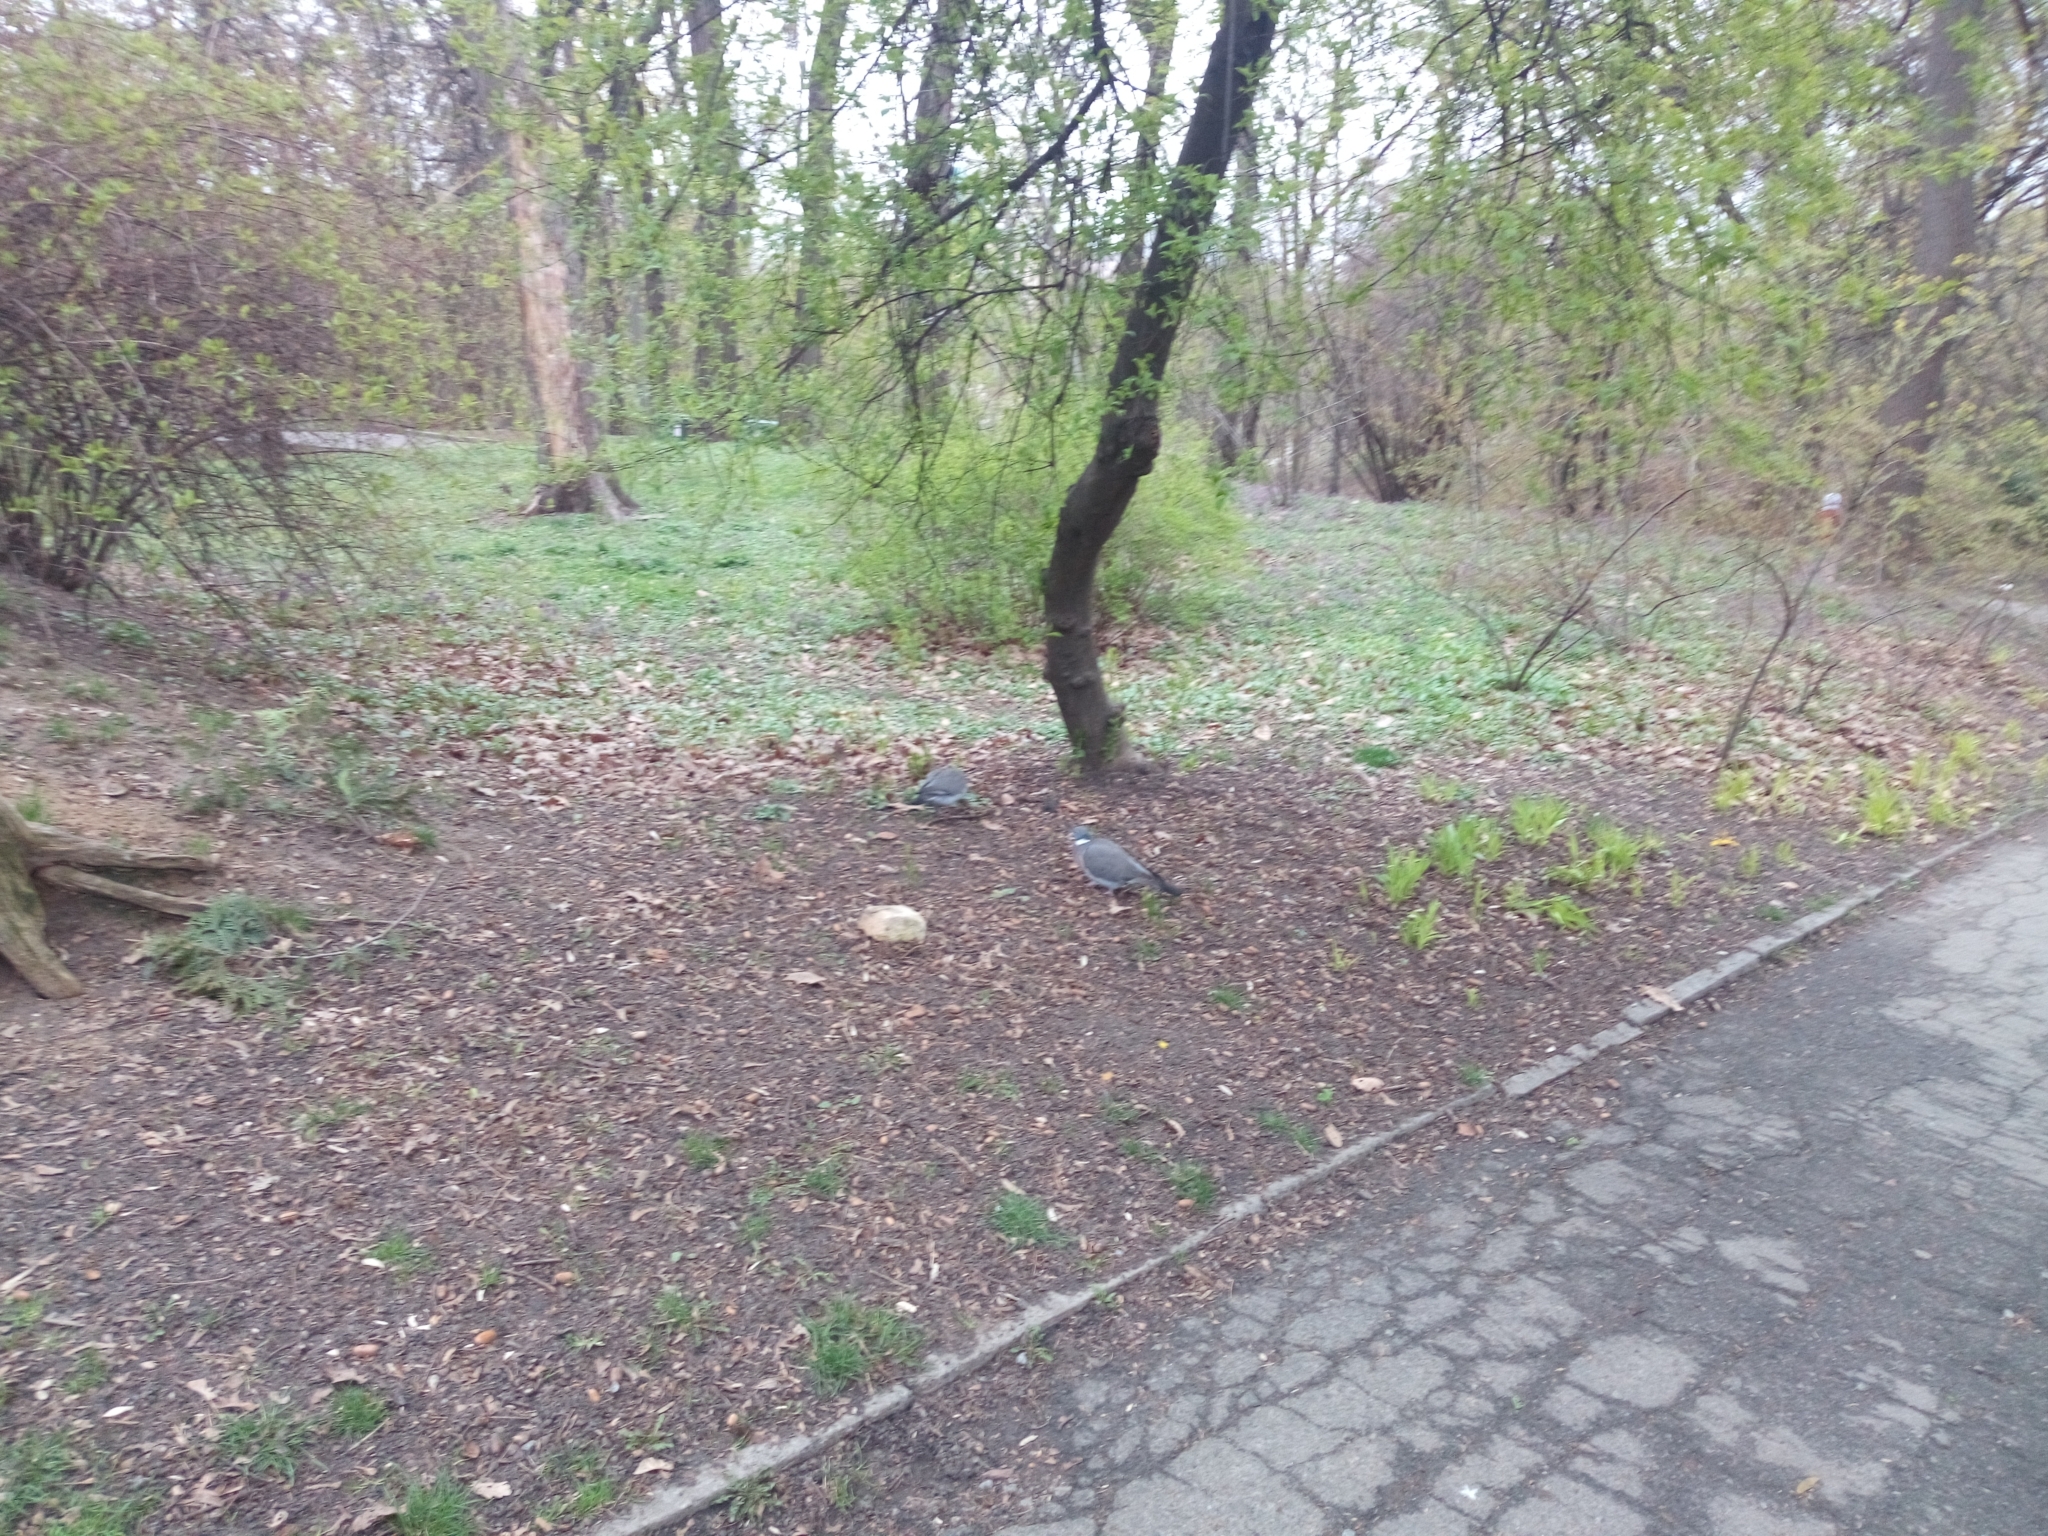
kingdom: Animalia
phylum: Chordata
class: Aves
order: Columbiformes
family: Columbidae
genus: Columba
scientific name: Columba palumbus
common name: Common wood pigeon
